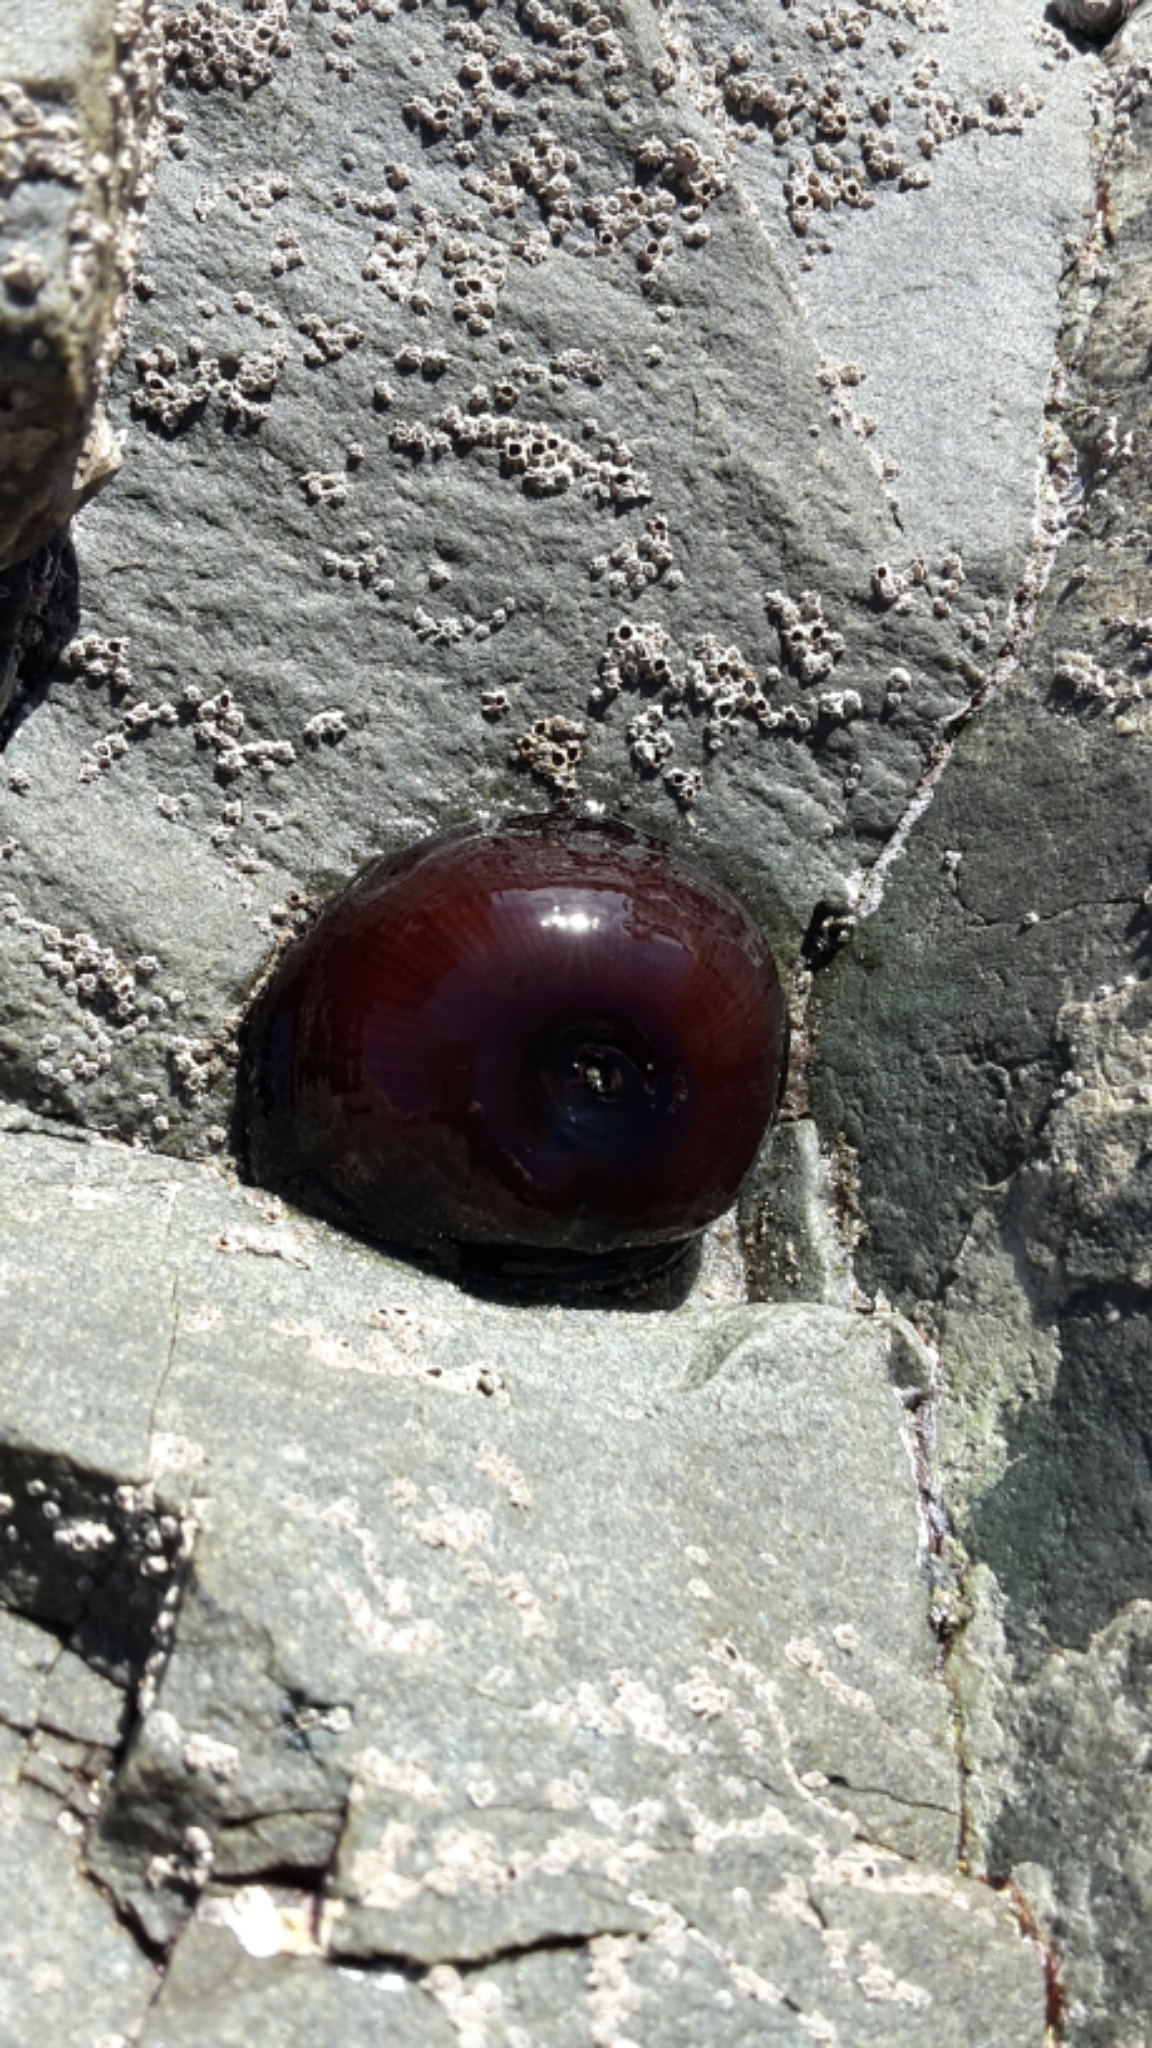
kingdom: Animalia
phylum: Cnidaria
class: Anthozoa
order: Actiniaria
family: Actiniidae
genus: Actinia
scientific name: Actinia tenebrosa
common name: Waratah anemone
